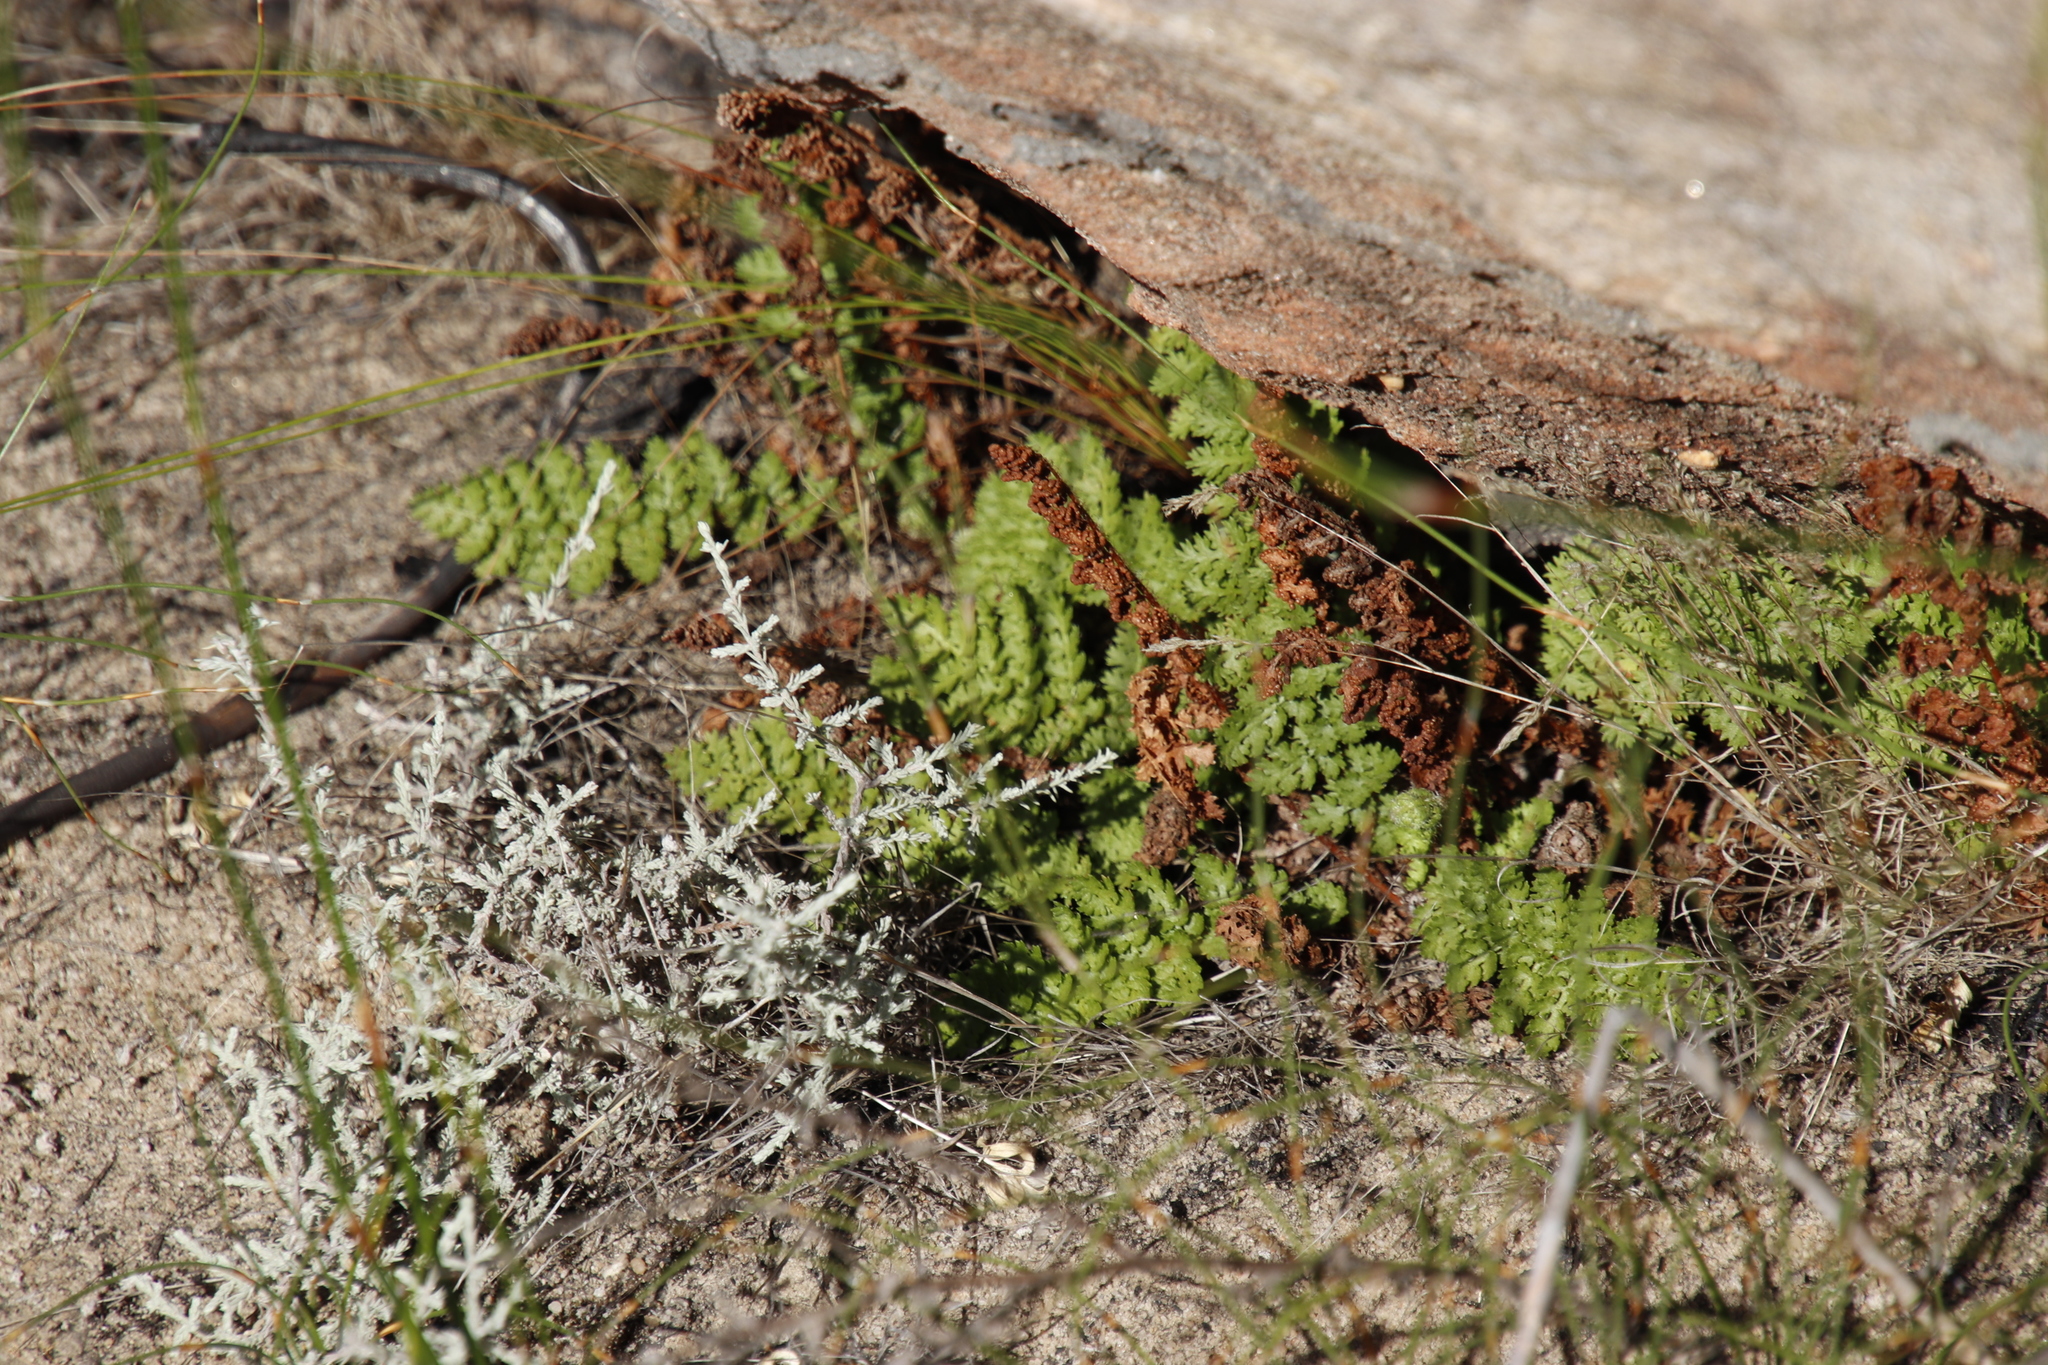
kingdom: Plantae
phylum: Tracheophyta
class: Polypodiopsida
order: Schizaeales
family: Anemiaceae
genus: Anemia
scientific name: Anemia caffrorum
